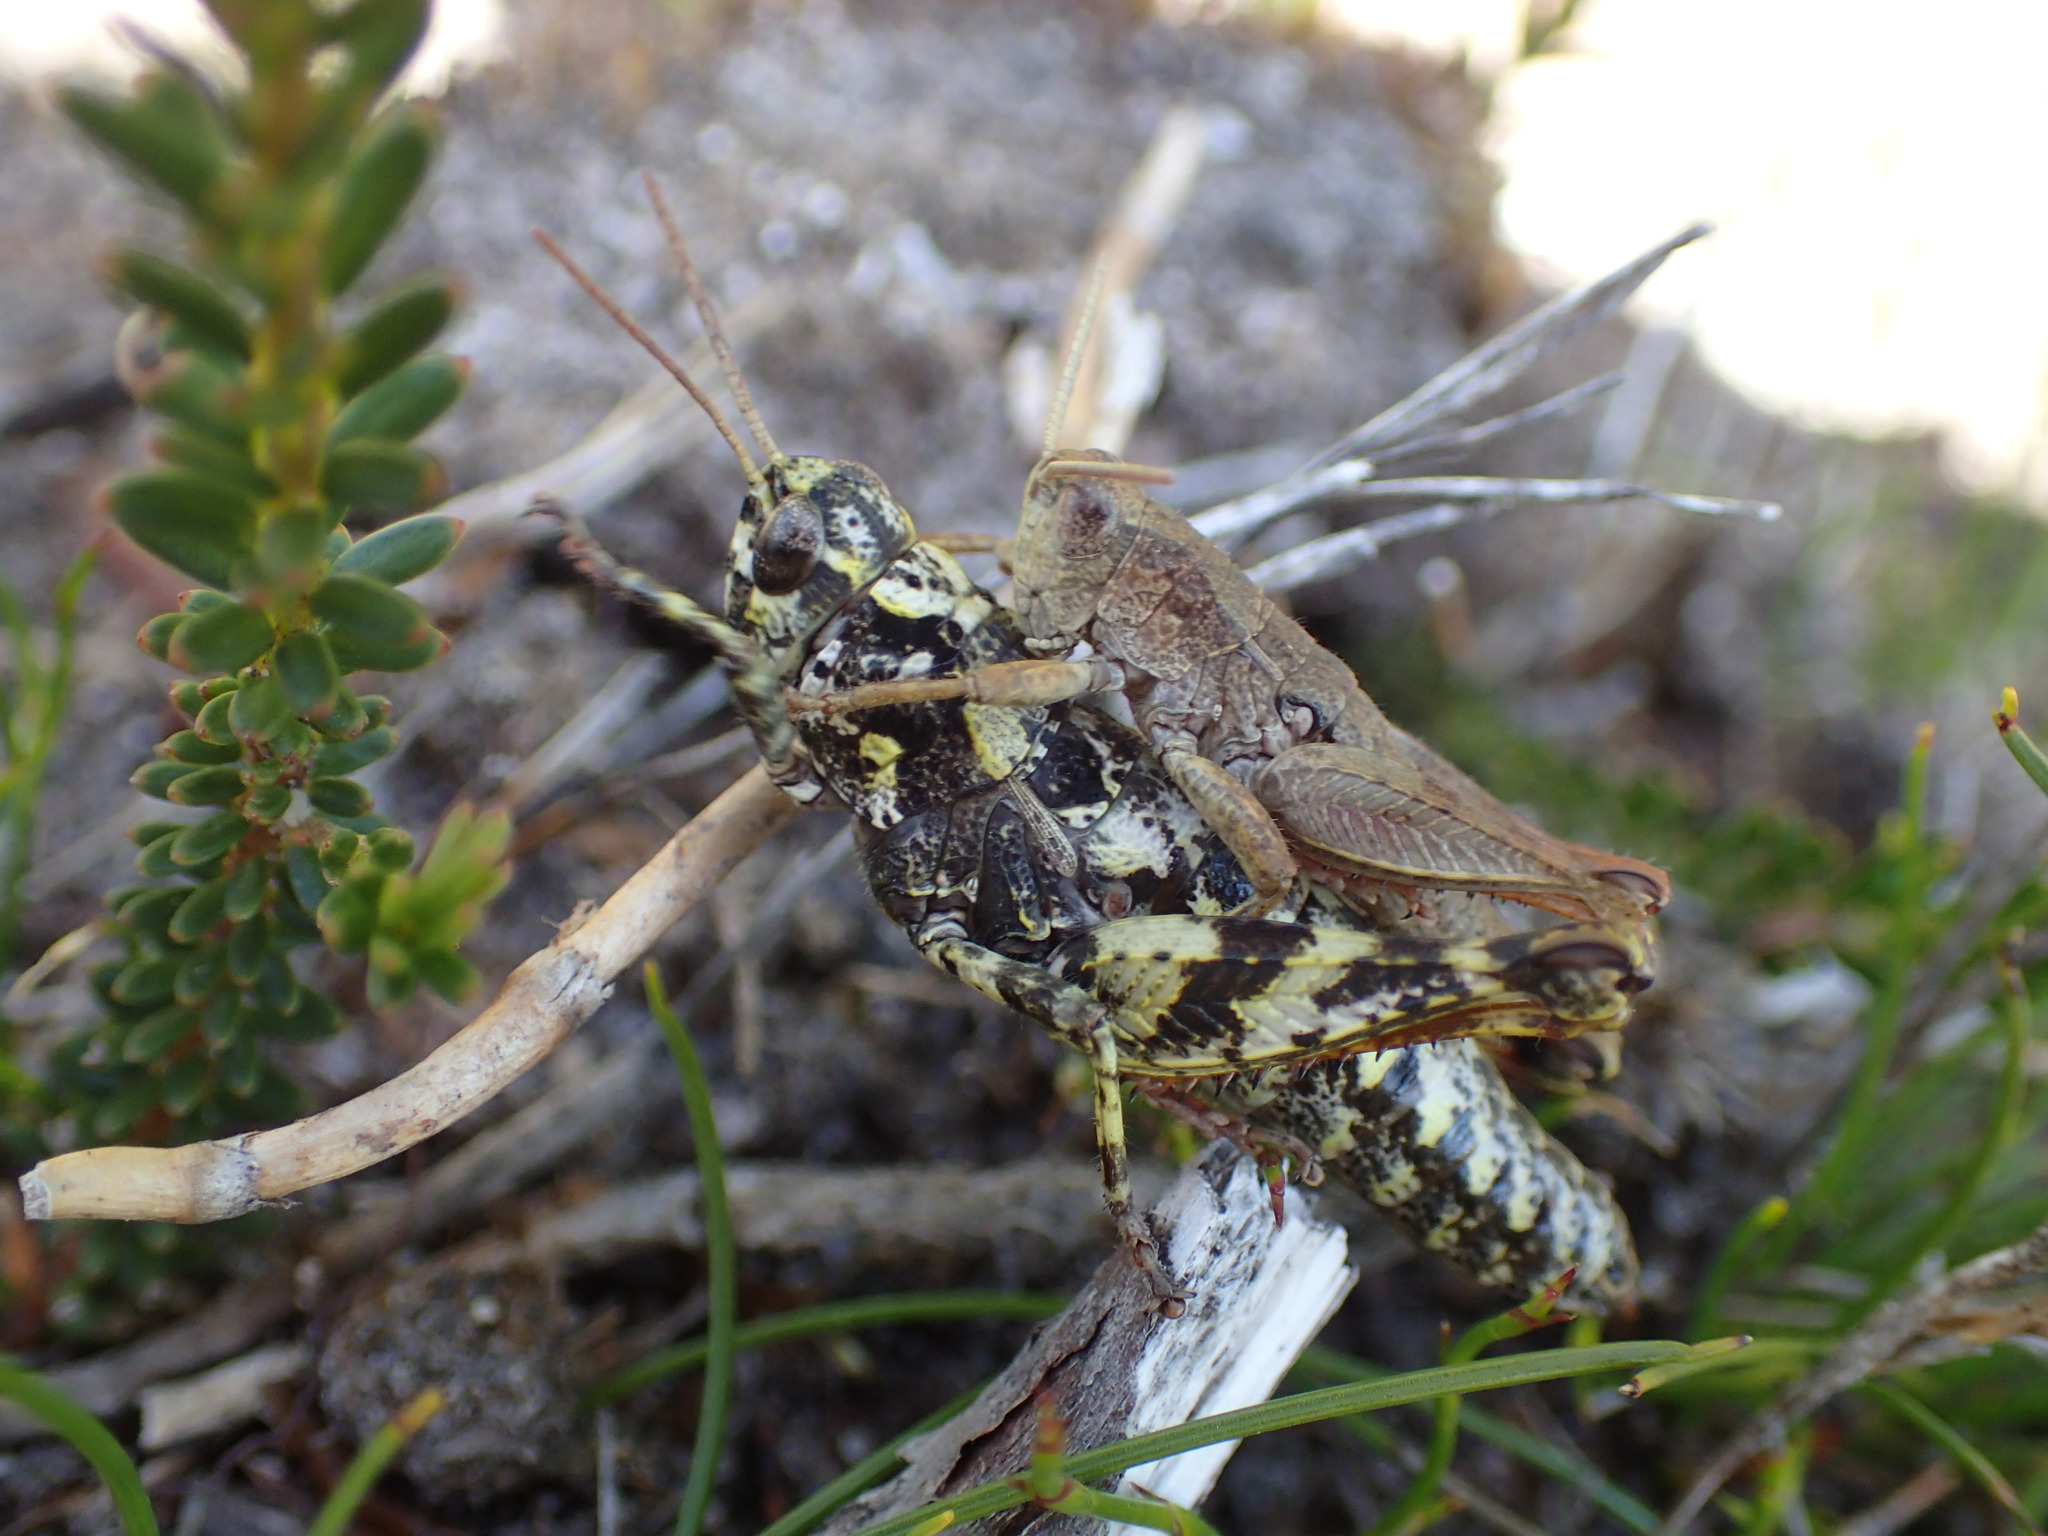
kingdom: Animalia
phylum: Arthropoda
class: Insecta
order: Orthoptera
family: Acrididae
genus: Tasmaniacris
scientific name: Tasmaniacris tasmaniensis
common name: Tasmanian grasshopper
